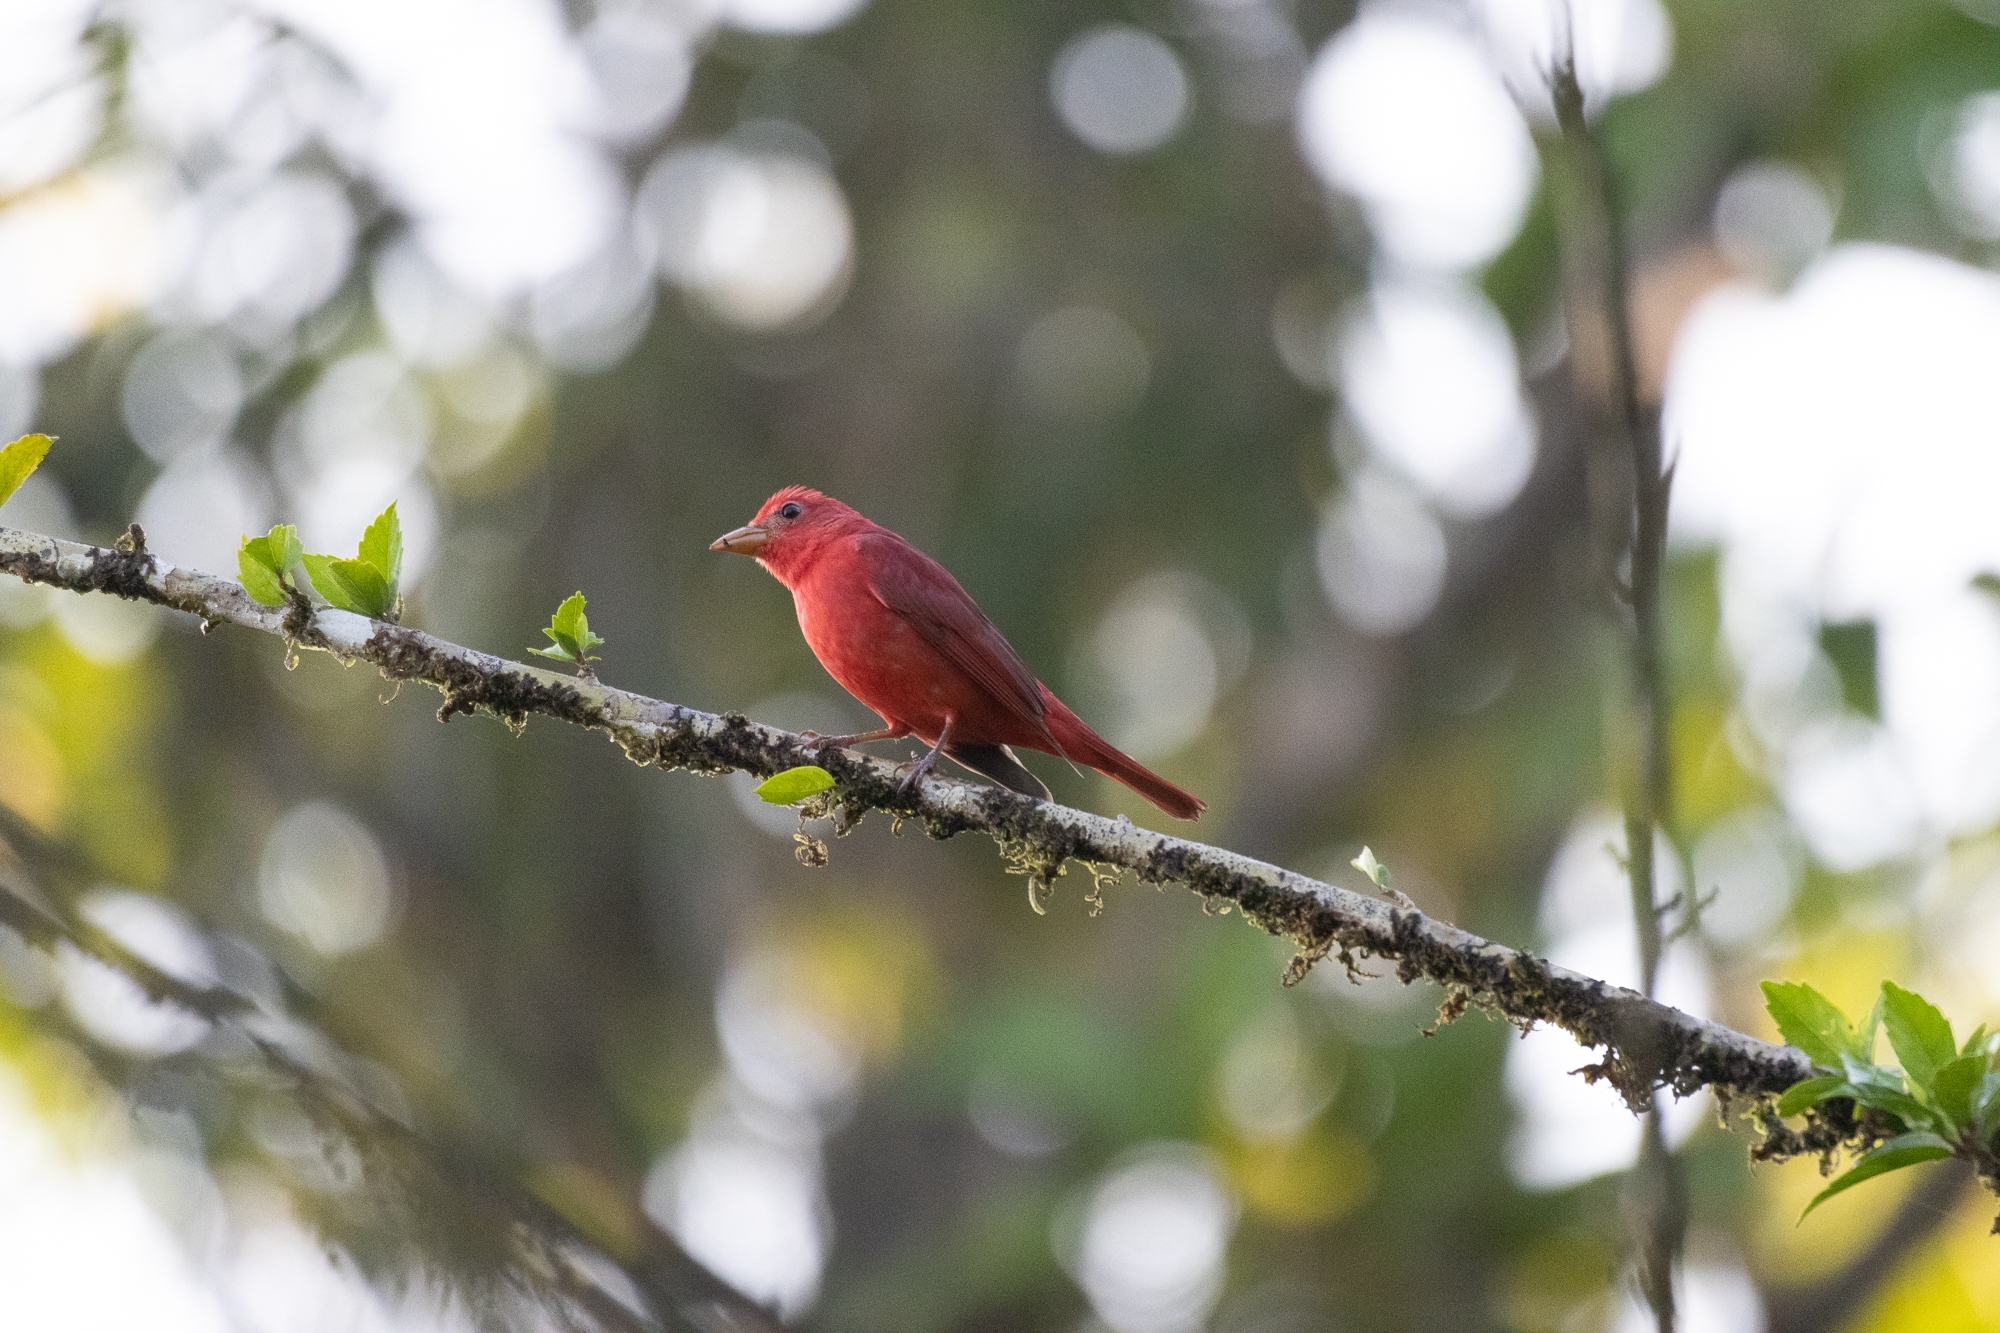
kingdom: Animalia
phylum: Chordata
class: Aves
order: Passeriformes
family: Cardinalidae
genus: Piranga
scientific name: Piranga rubra
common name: Summer tanager
